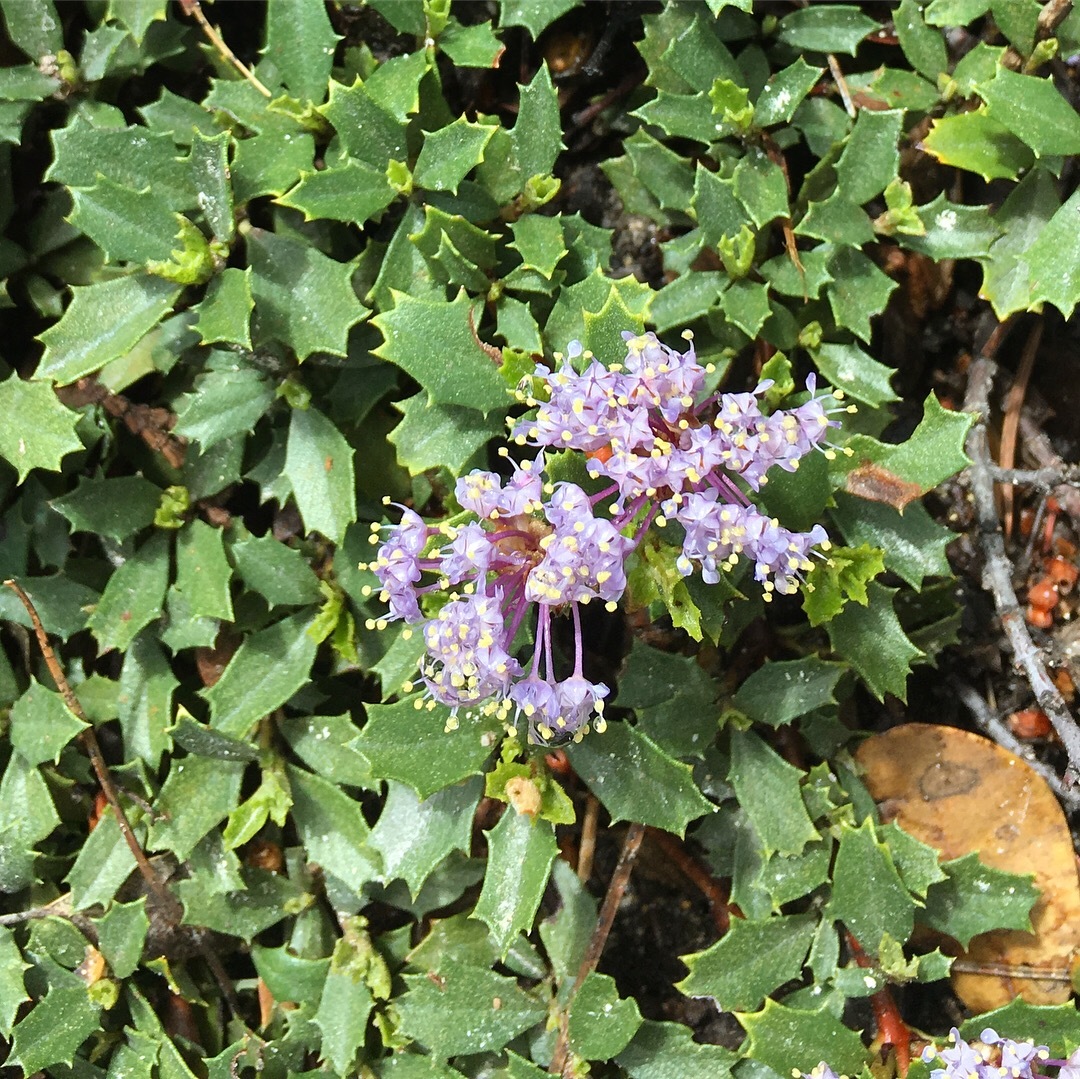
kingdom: Plantae
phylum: Tracheophyta
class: Magnoliopsida
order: Rosales
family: Rhamnaceae
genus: Ceanothus
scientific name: Ceanothus prostratus
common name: Mahala-mat
